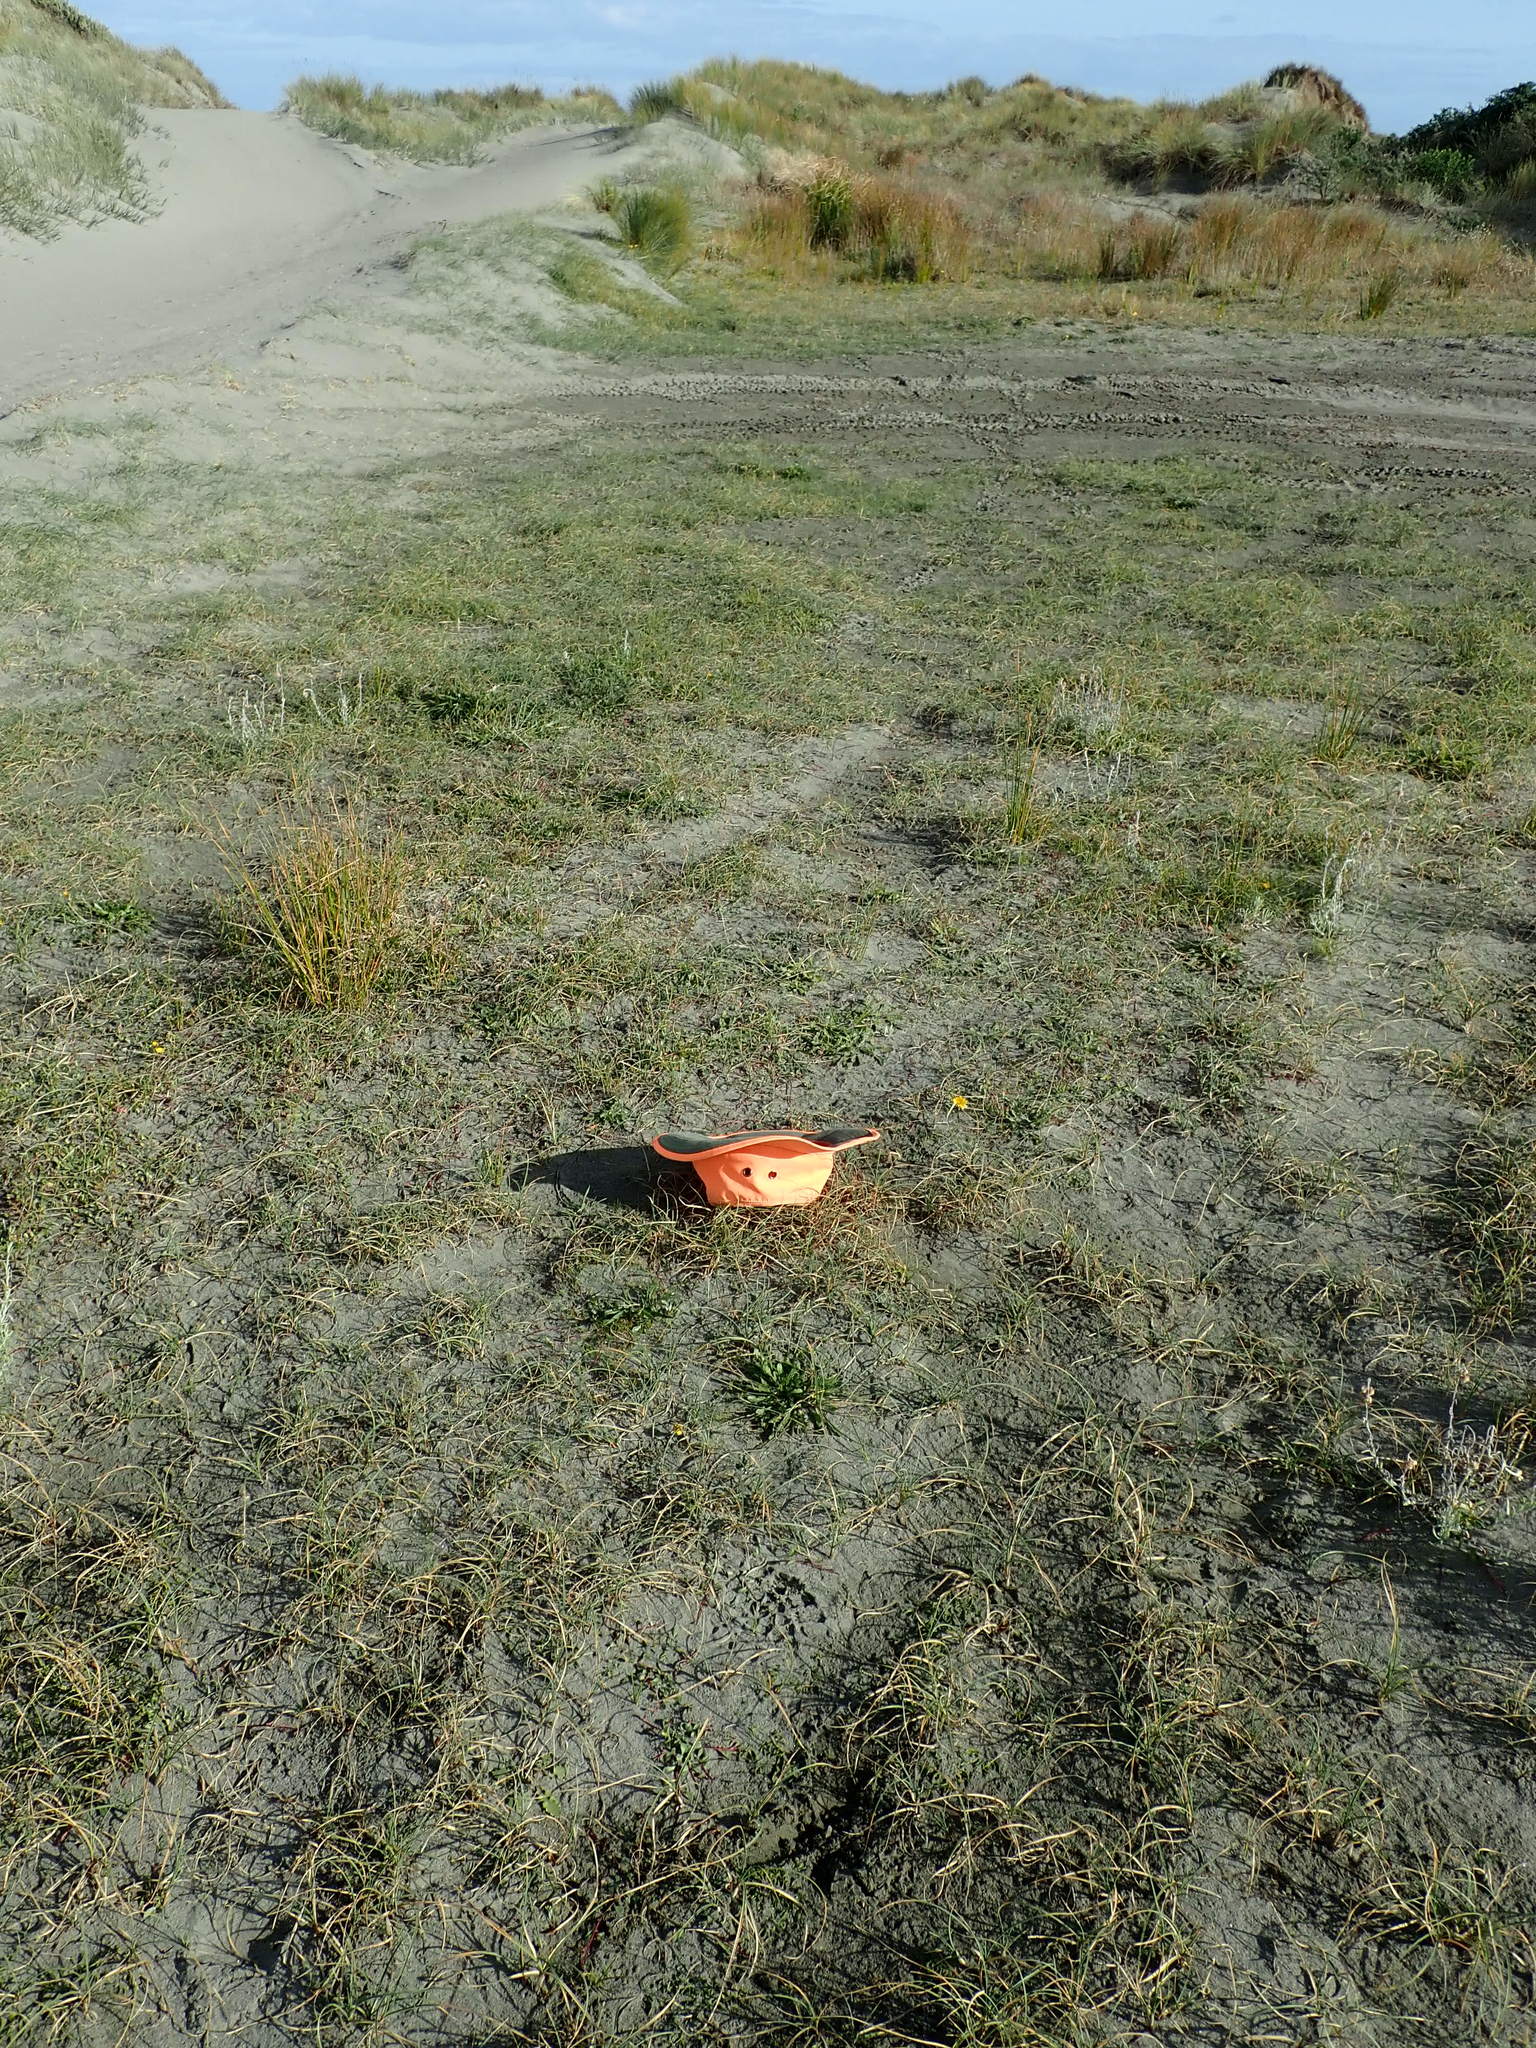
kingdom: Plantae
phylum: Tracheophyta
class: Magnoliopsida
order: Apiales
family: Apiaceae
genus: Lilaeopsis
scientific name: Lilaeopsis novae-zelandiae
